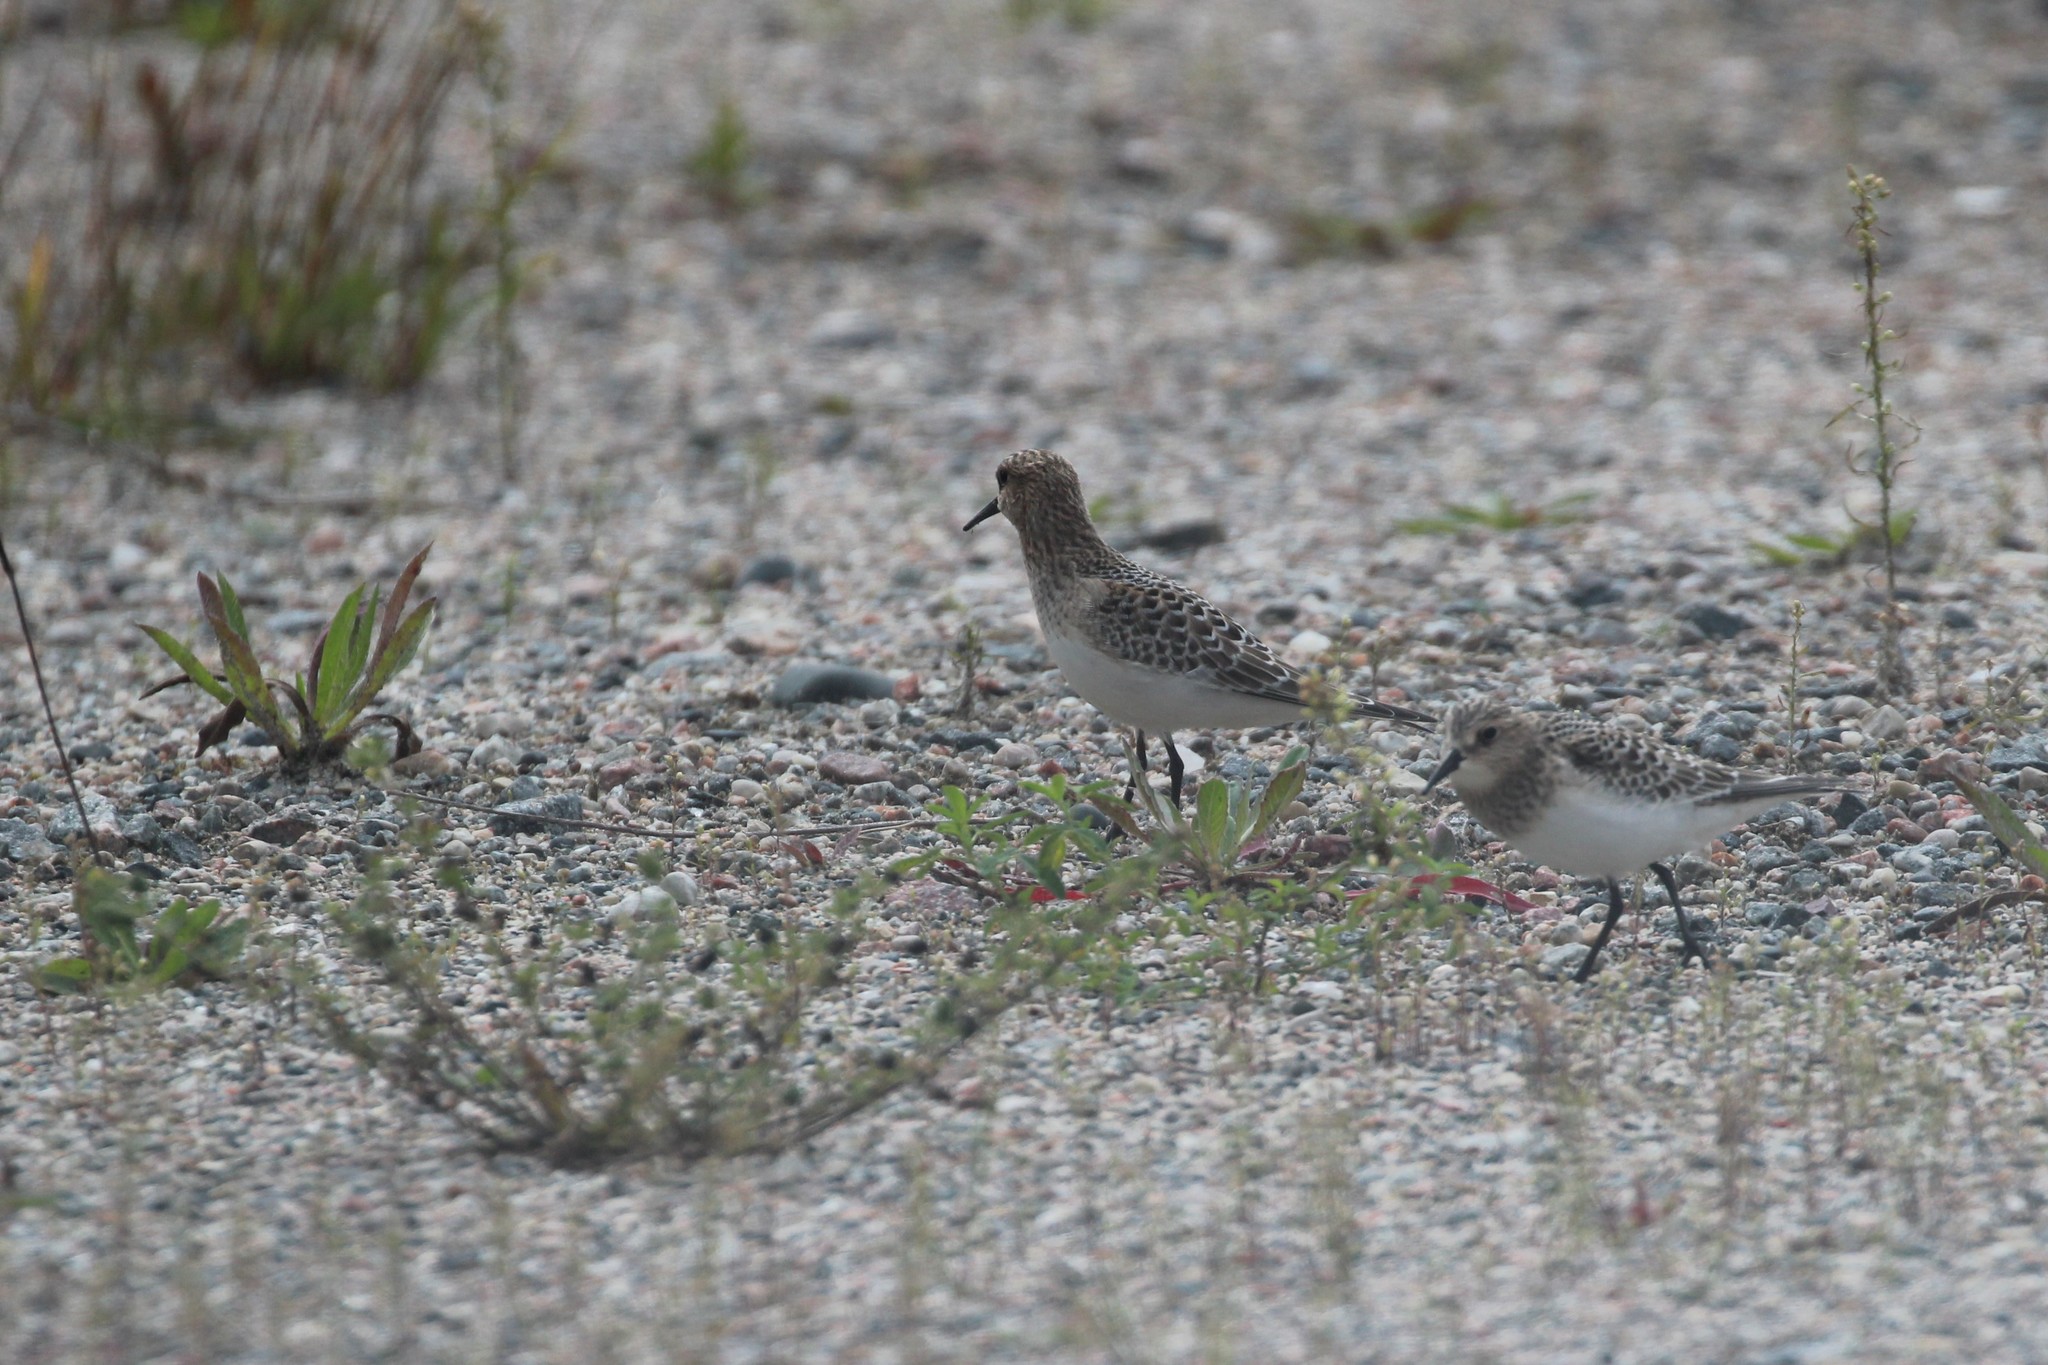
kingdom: Animalia
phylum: Chordata
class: Aves
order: Charadriiformes
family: Scolopacidae
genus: Calidris
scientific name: Calidris bairdii
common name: Baird's sandpiper
